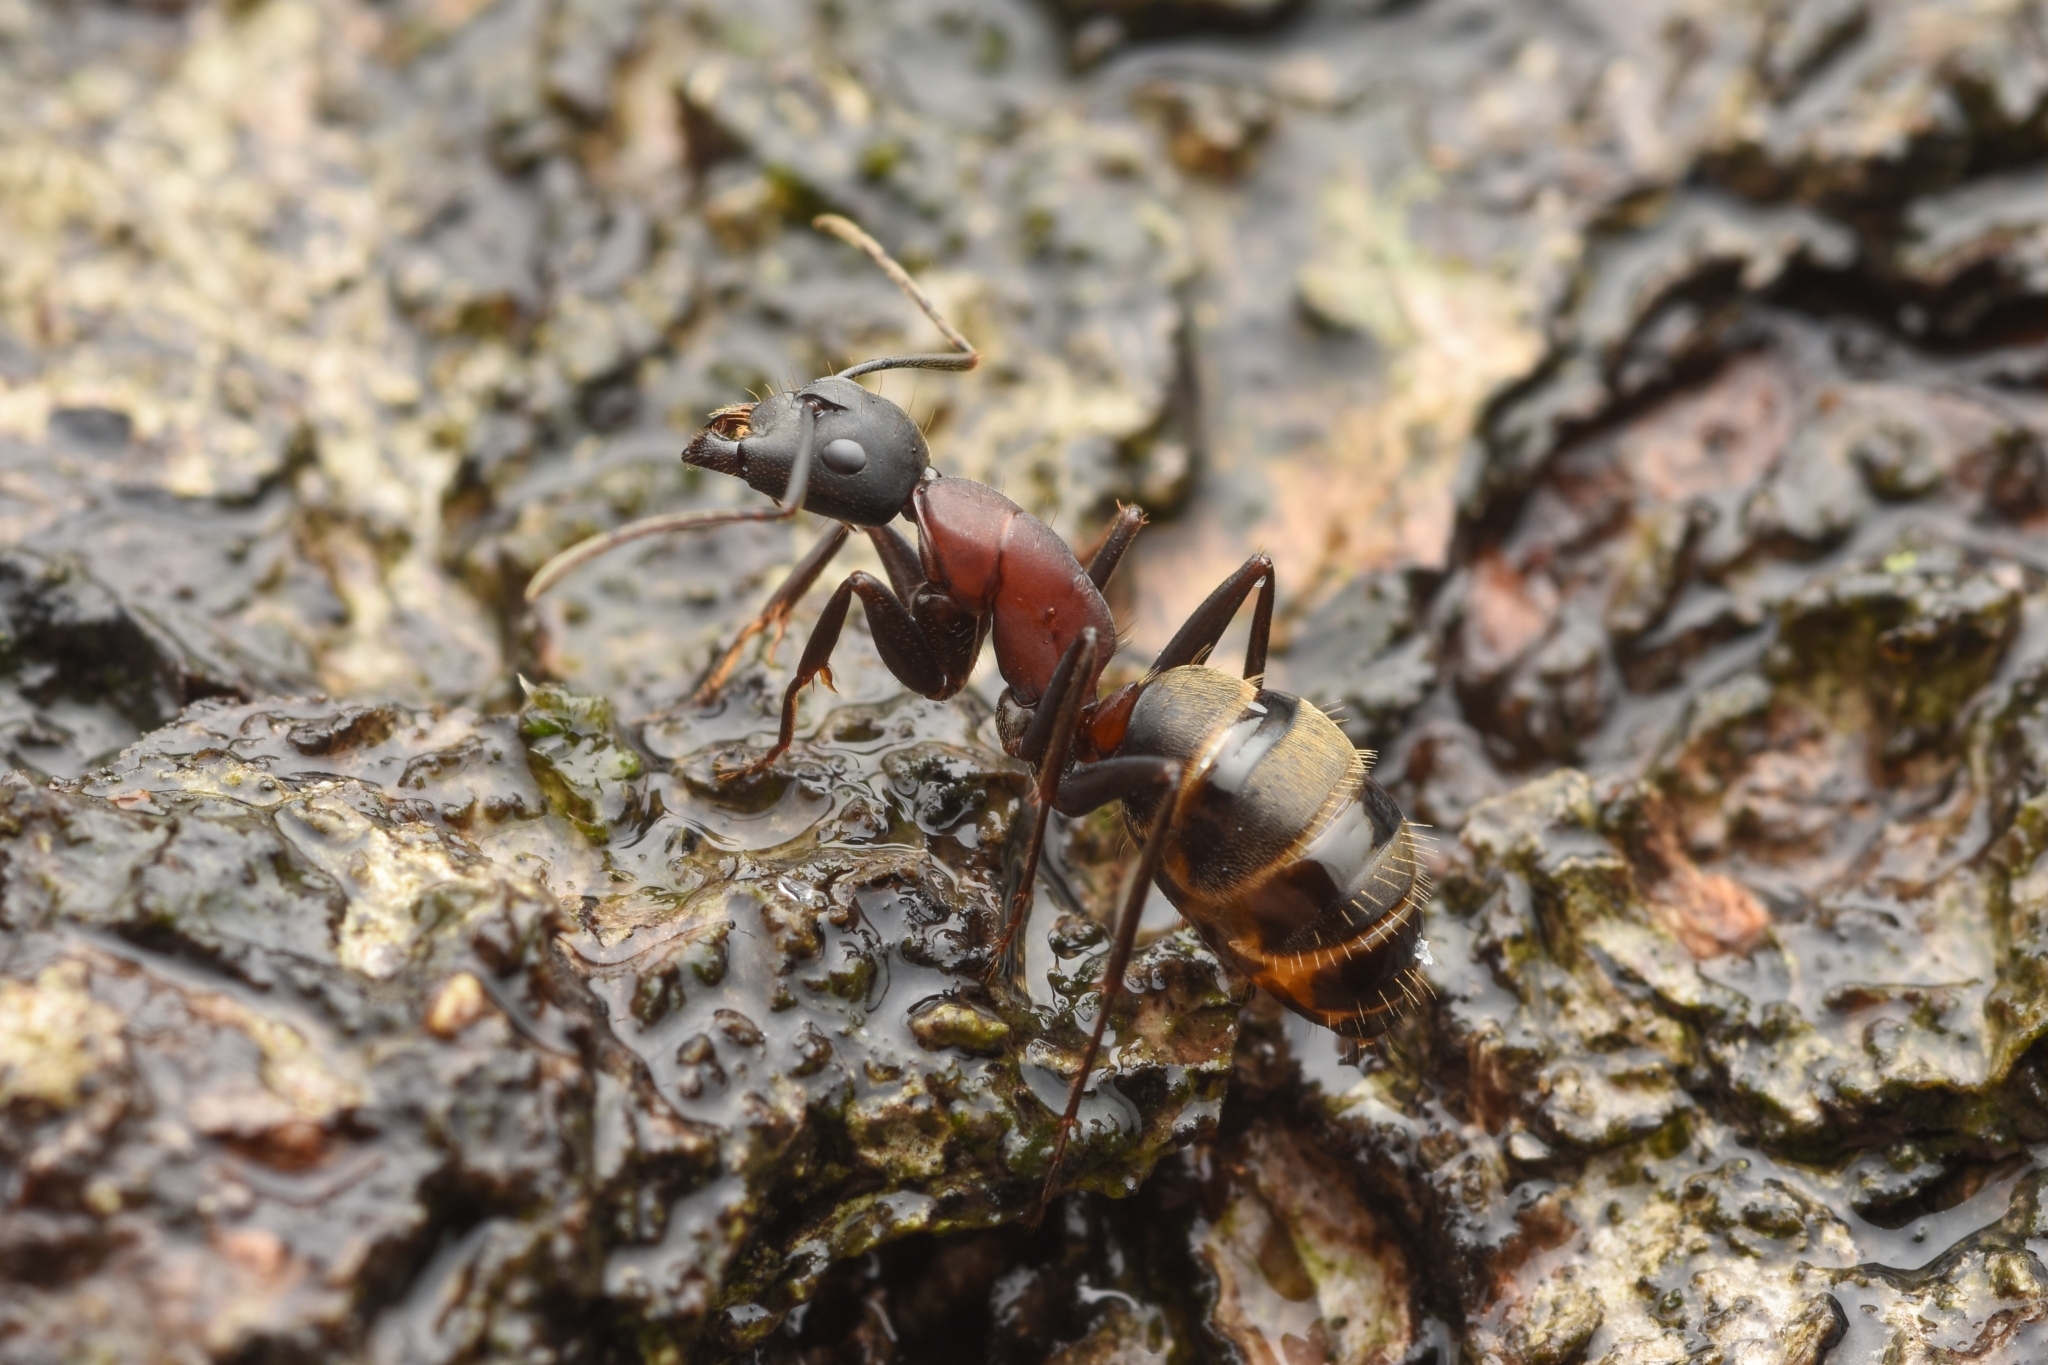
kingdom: Animalia
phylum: Arthropoda
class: Insecta
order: Hymenoptera
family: Formicidae
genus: Camponotus
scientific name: Camponotus atrox
